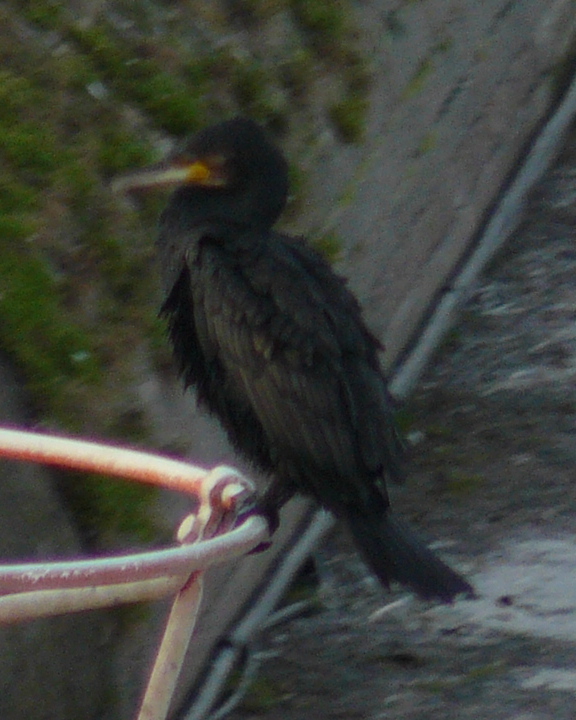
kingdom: Animalia
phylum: Chordata
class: Aves
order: Suliformes
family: Phalacrocoracidae
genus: Phalacrocorax
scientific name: Phalacrocorax carbo
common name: Great cormorant
